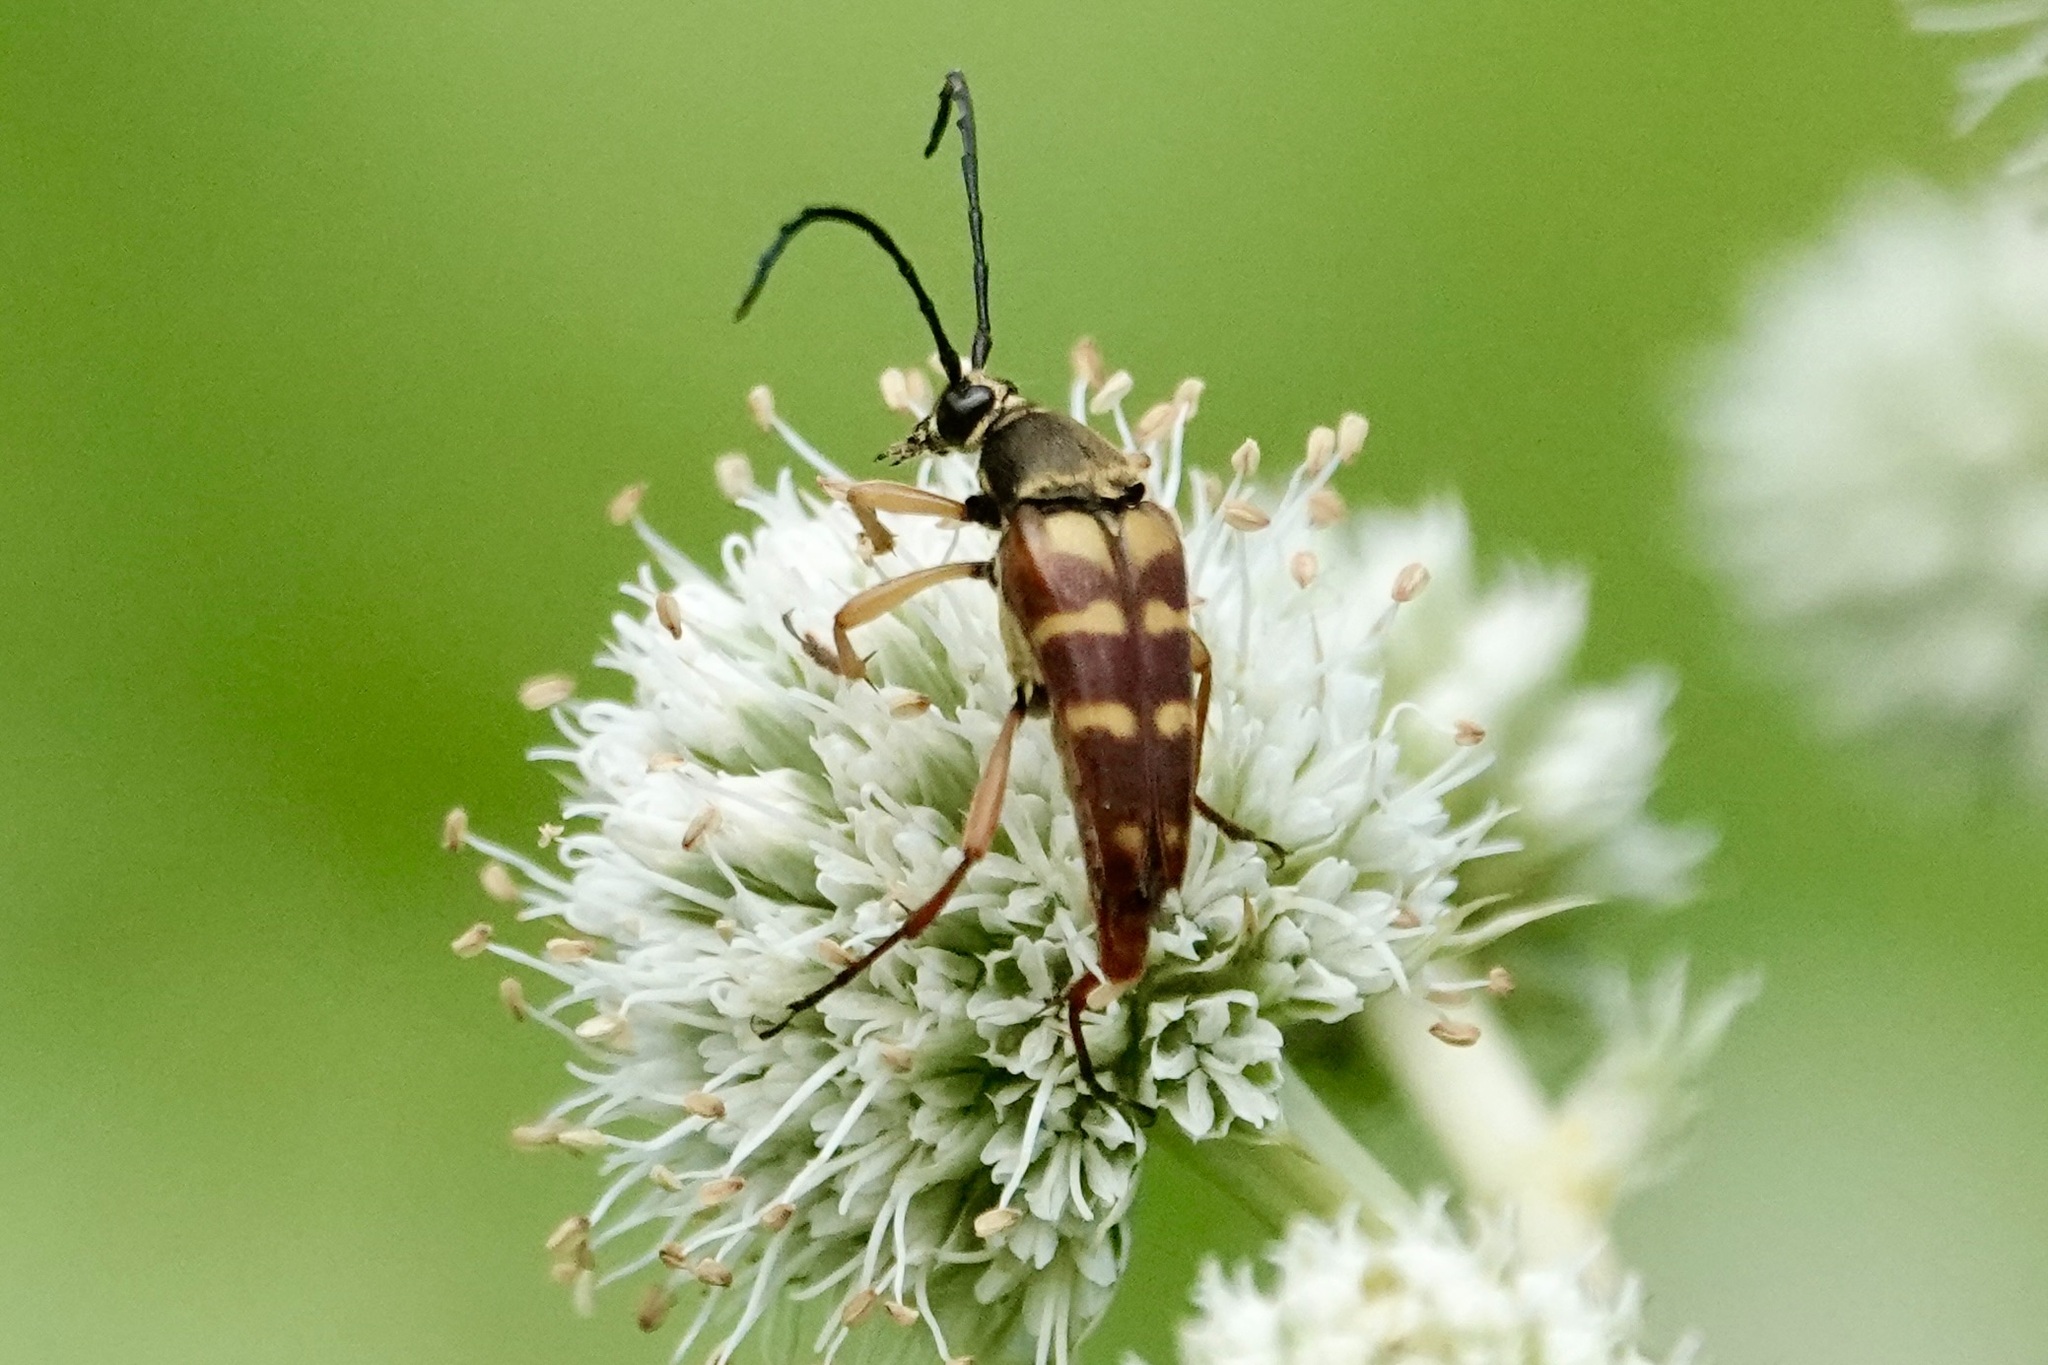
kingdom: Animalia
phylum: Arthropoda
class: Insecta
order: Coleoptera
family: Cerambycidae
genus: Typocerus
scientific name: Typocerus velutinus
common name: Banded longhorn beetle
